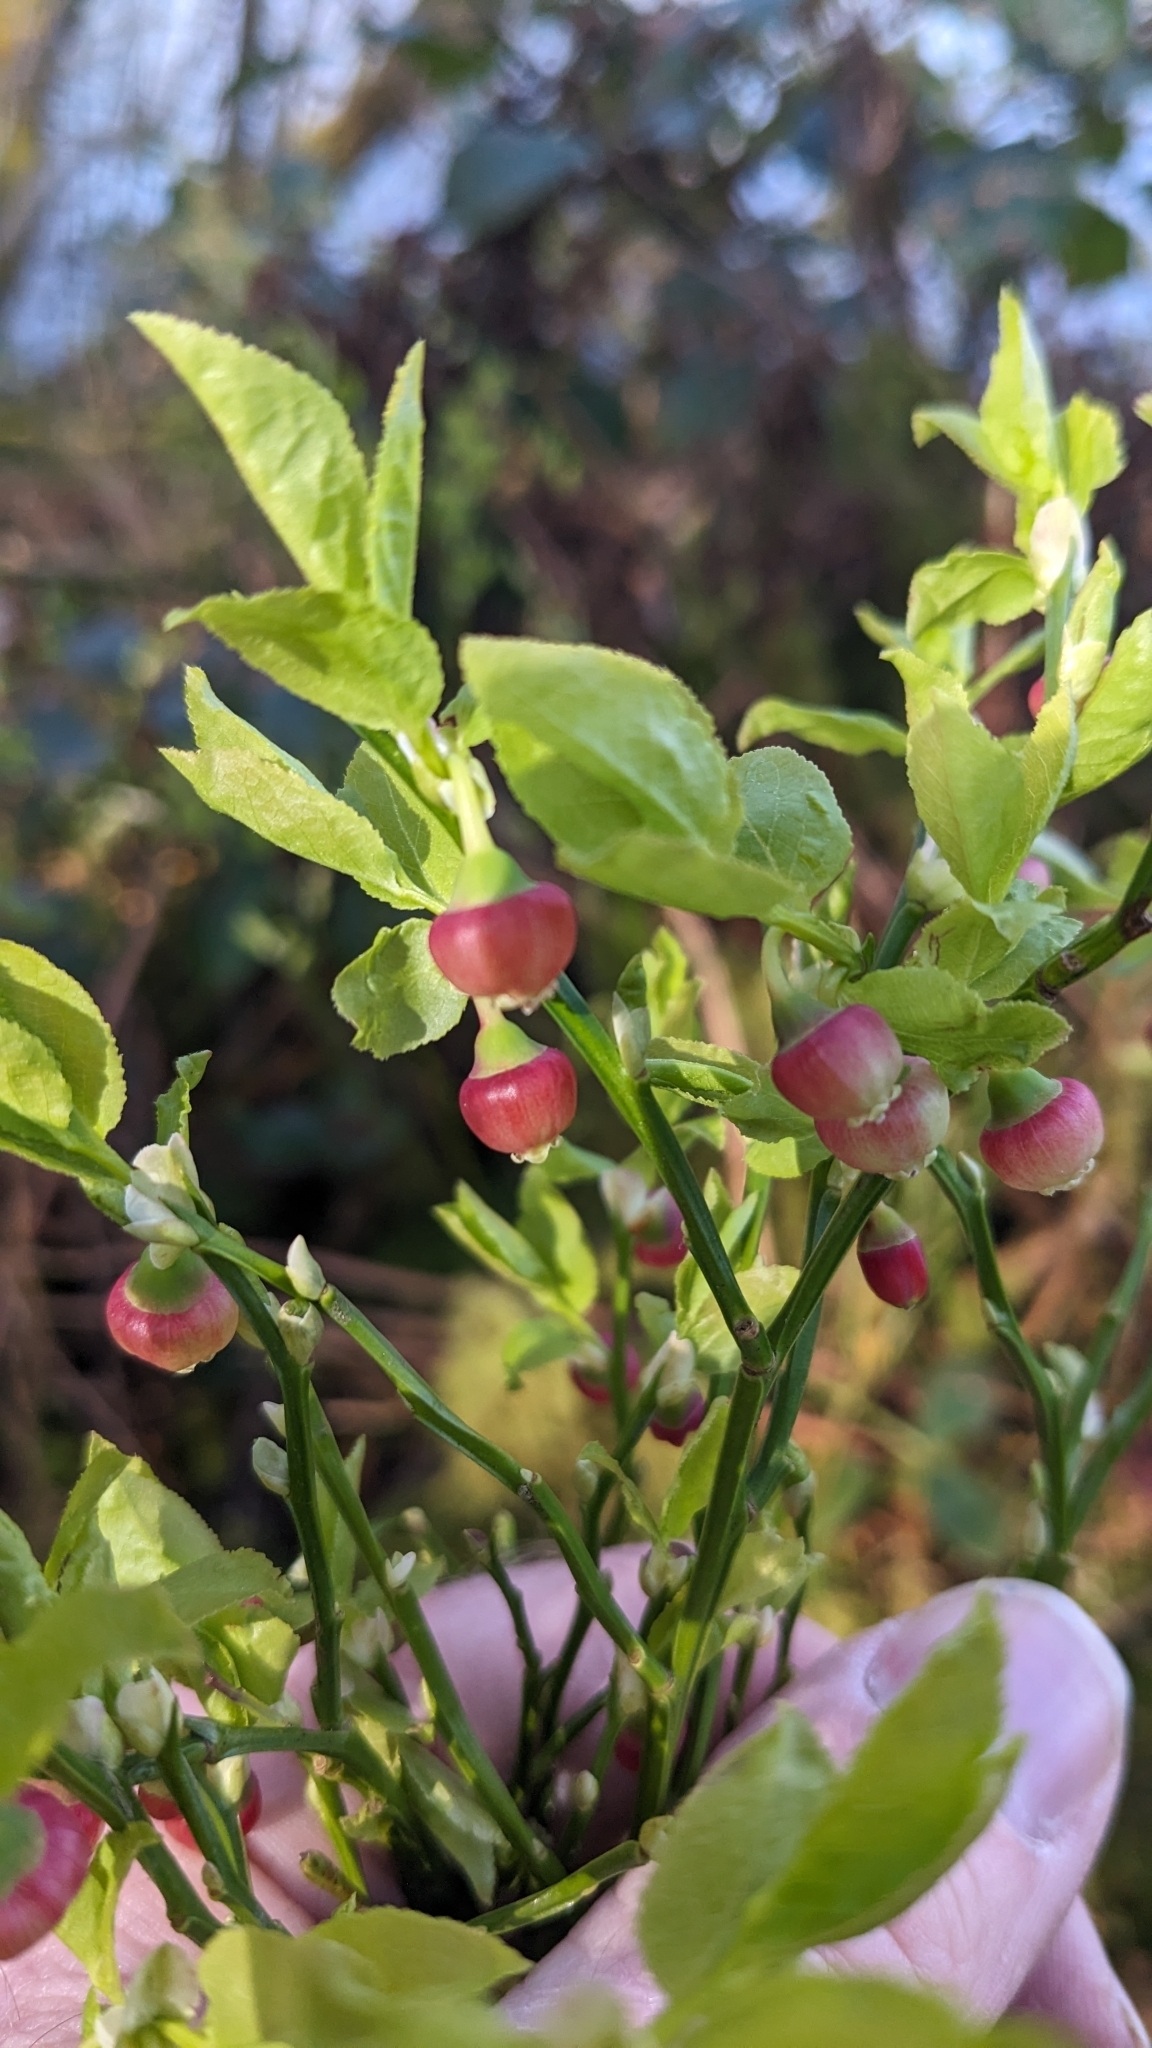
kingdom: Plantae
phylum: Tracheophyta
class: Magnoliopsida
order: Ericales
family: Ericaceae
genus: Vaccinium
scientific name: Vaccinium myrtillus
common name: Bilberry
